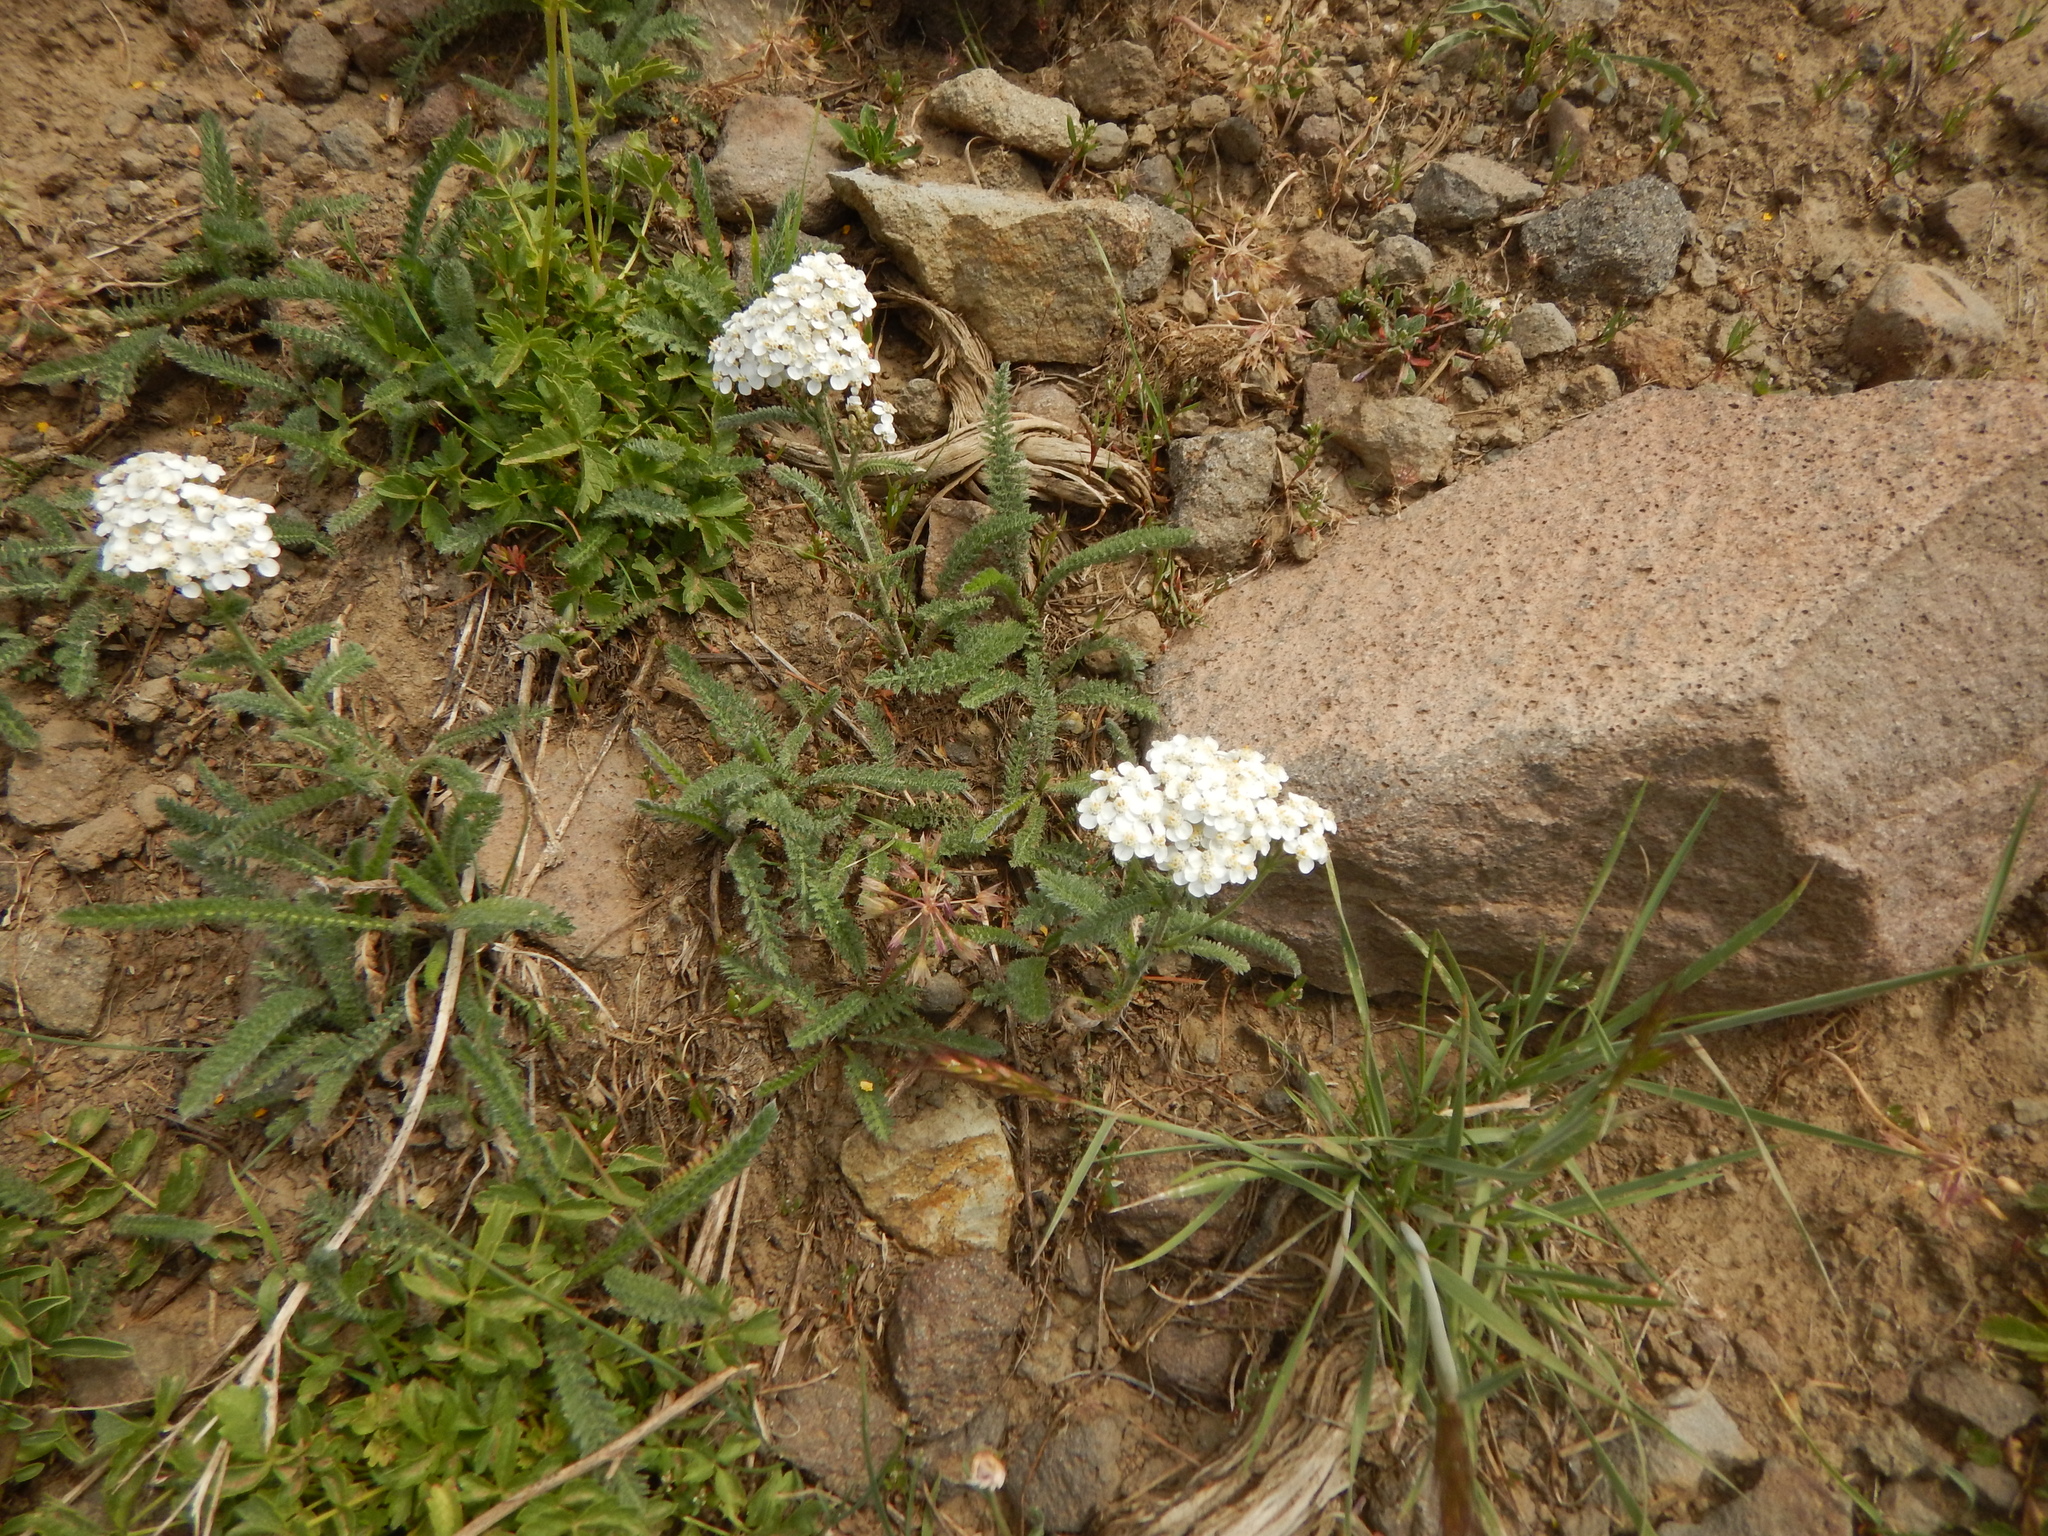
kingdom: Plantae
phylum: Tracheophyta
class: Magnoliopsida
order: Asterales
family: Asteraceae
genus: Achillea
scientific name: Achillea millefolium
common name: Yarrow
